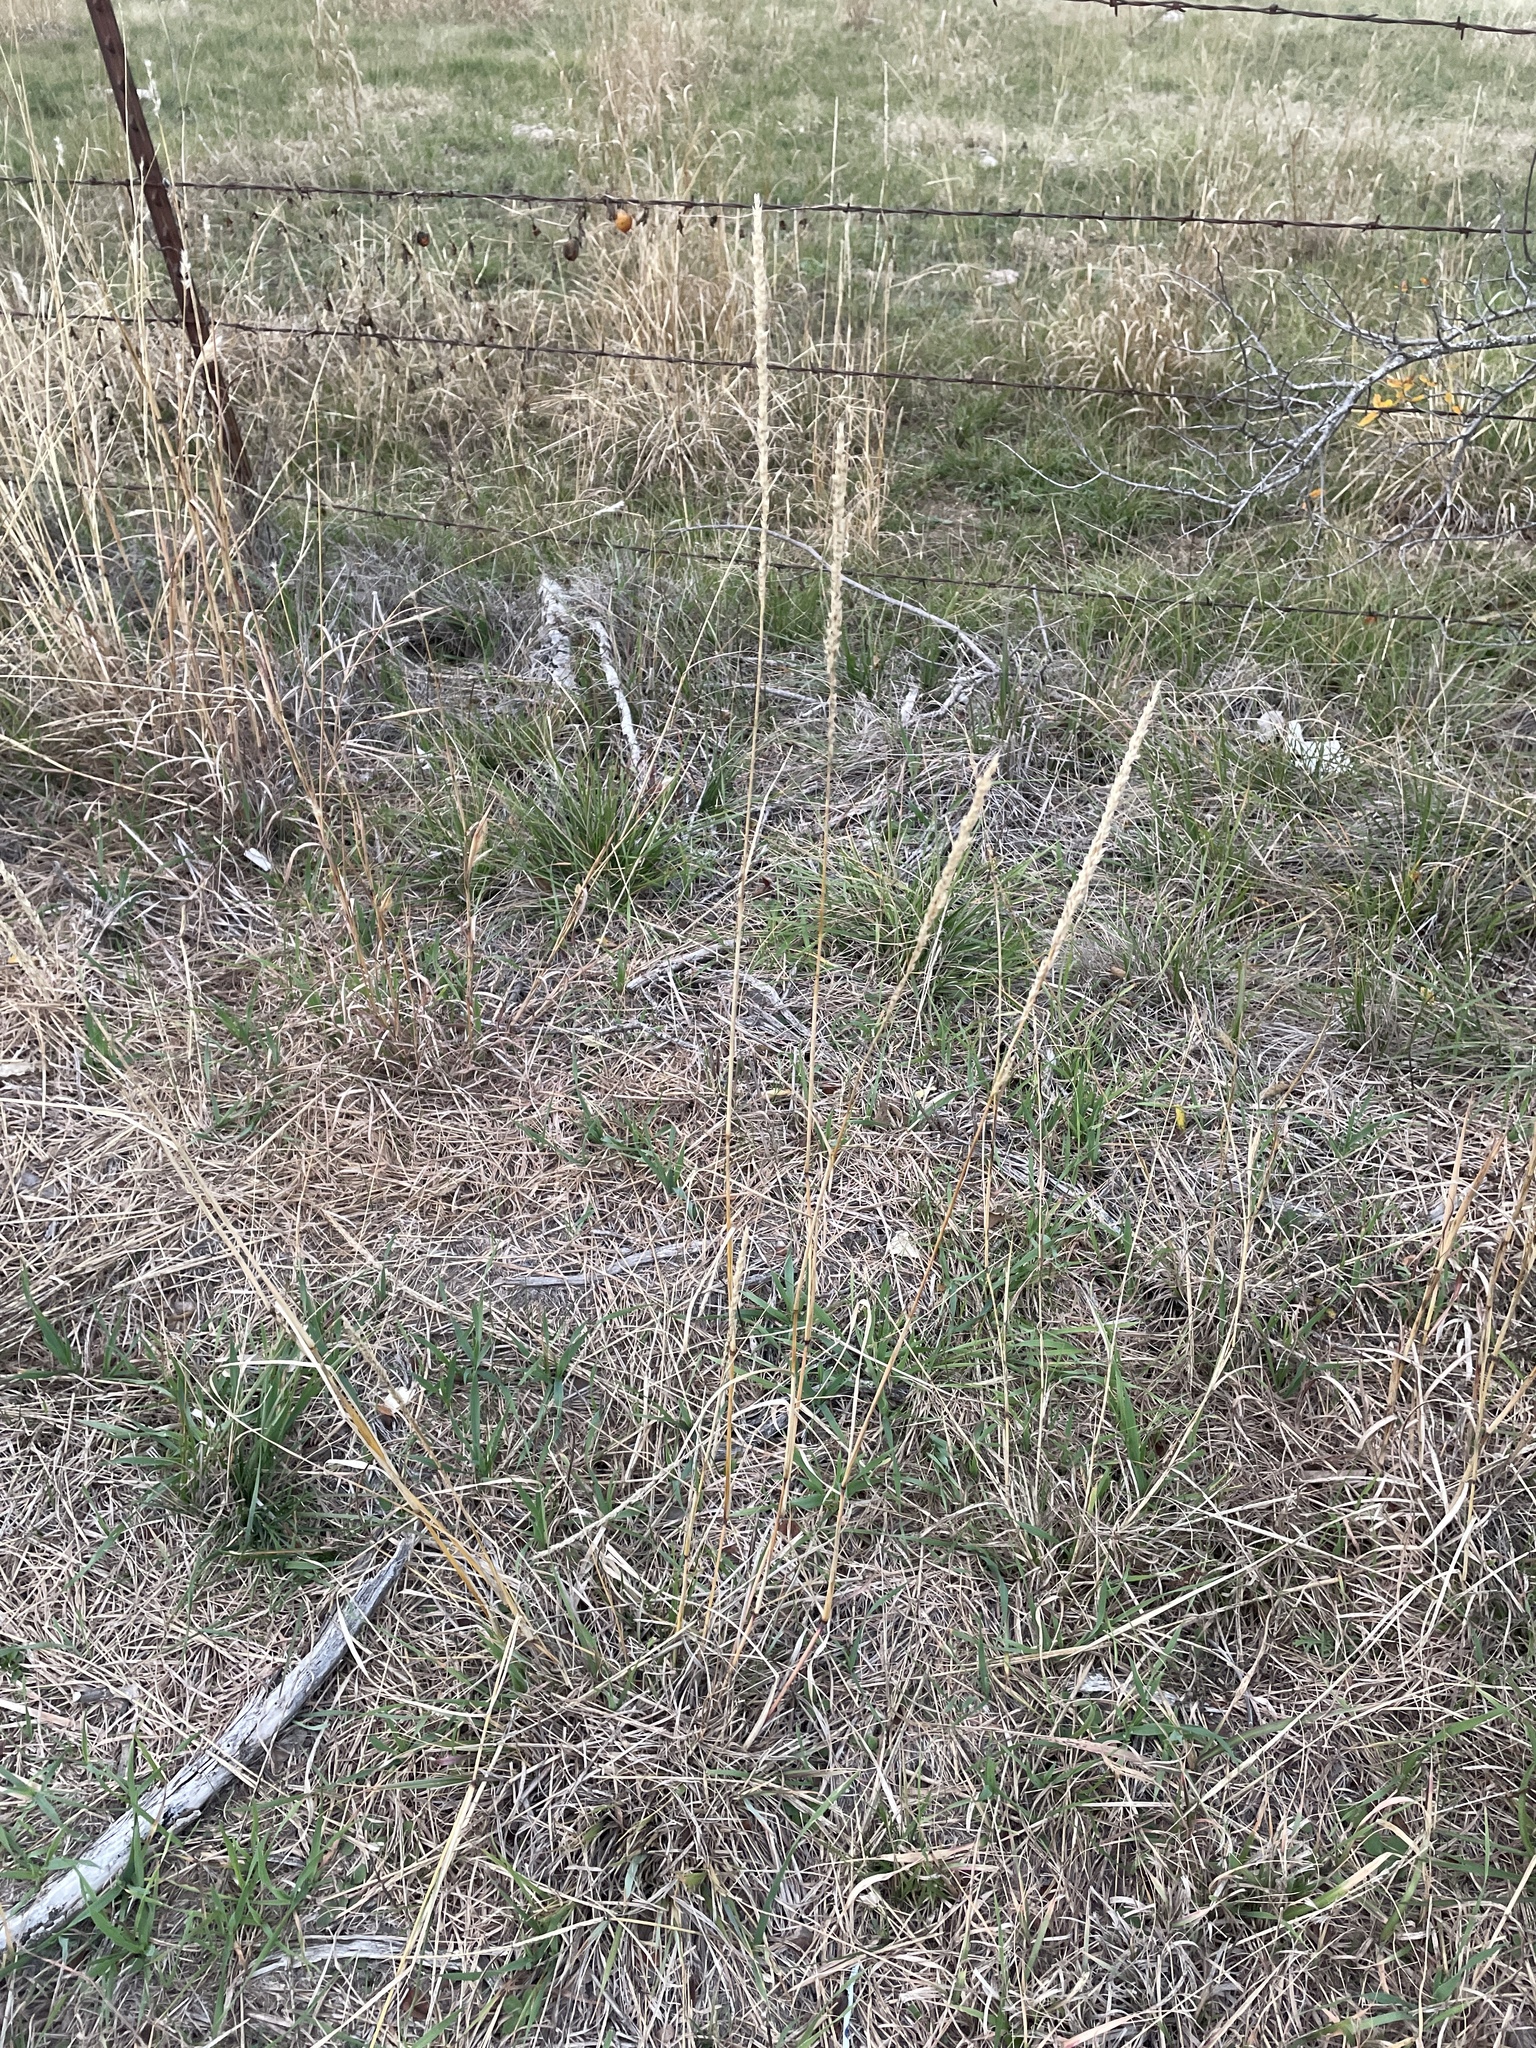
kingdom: Plantae
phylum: Tracheophyta
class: Liliopsida
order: Poales
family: Poaceae
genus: Tridens
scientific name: Tridens albescens
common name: White tridens
